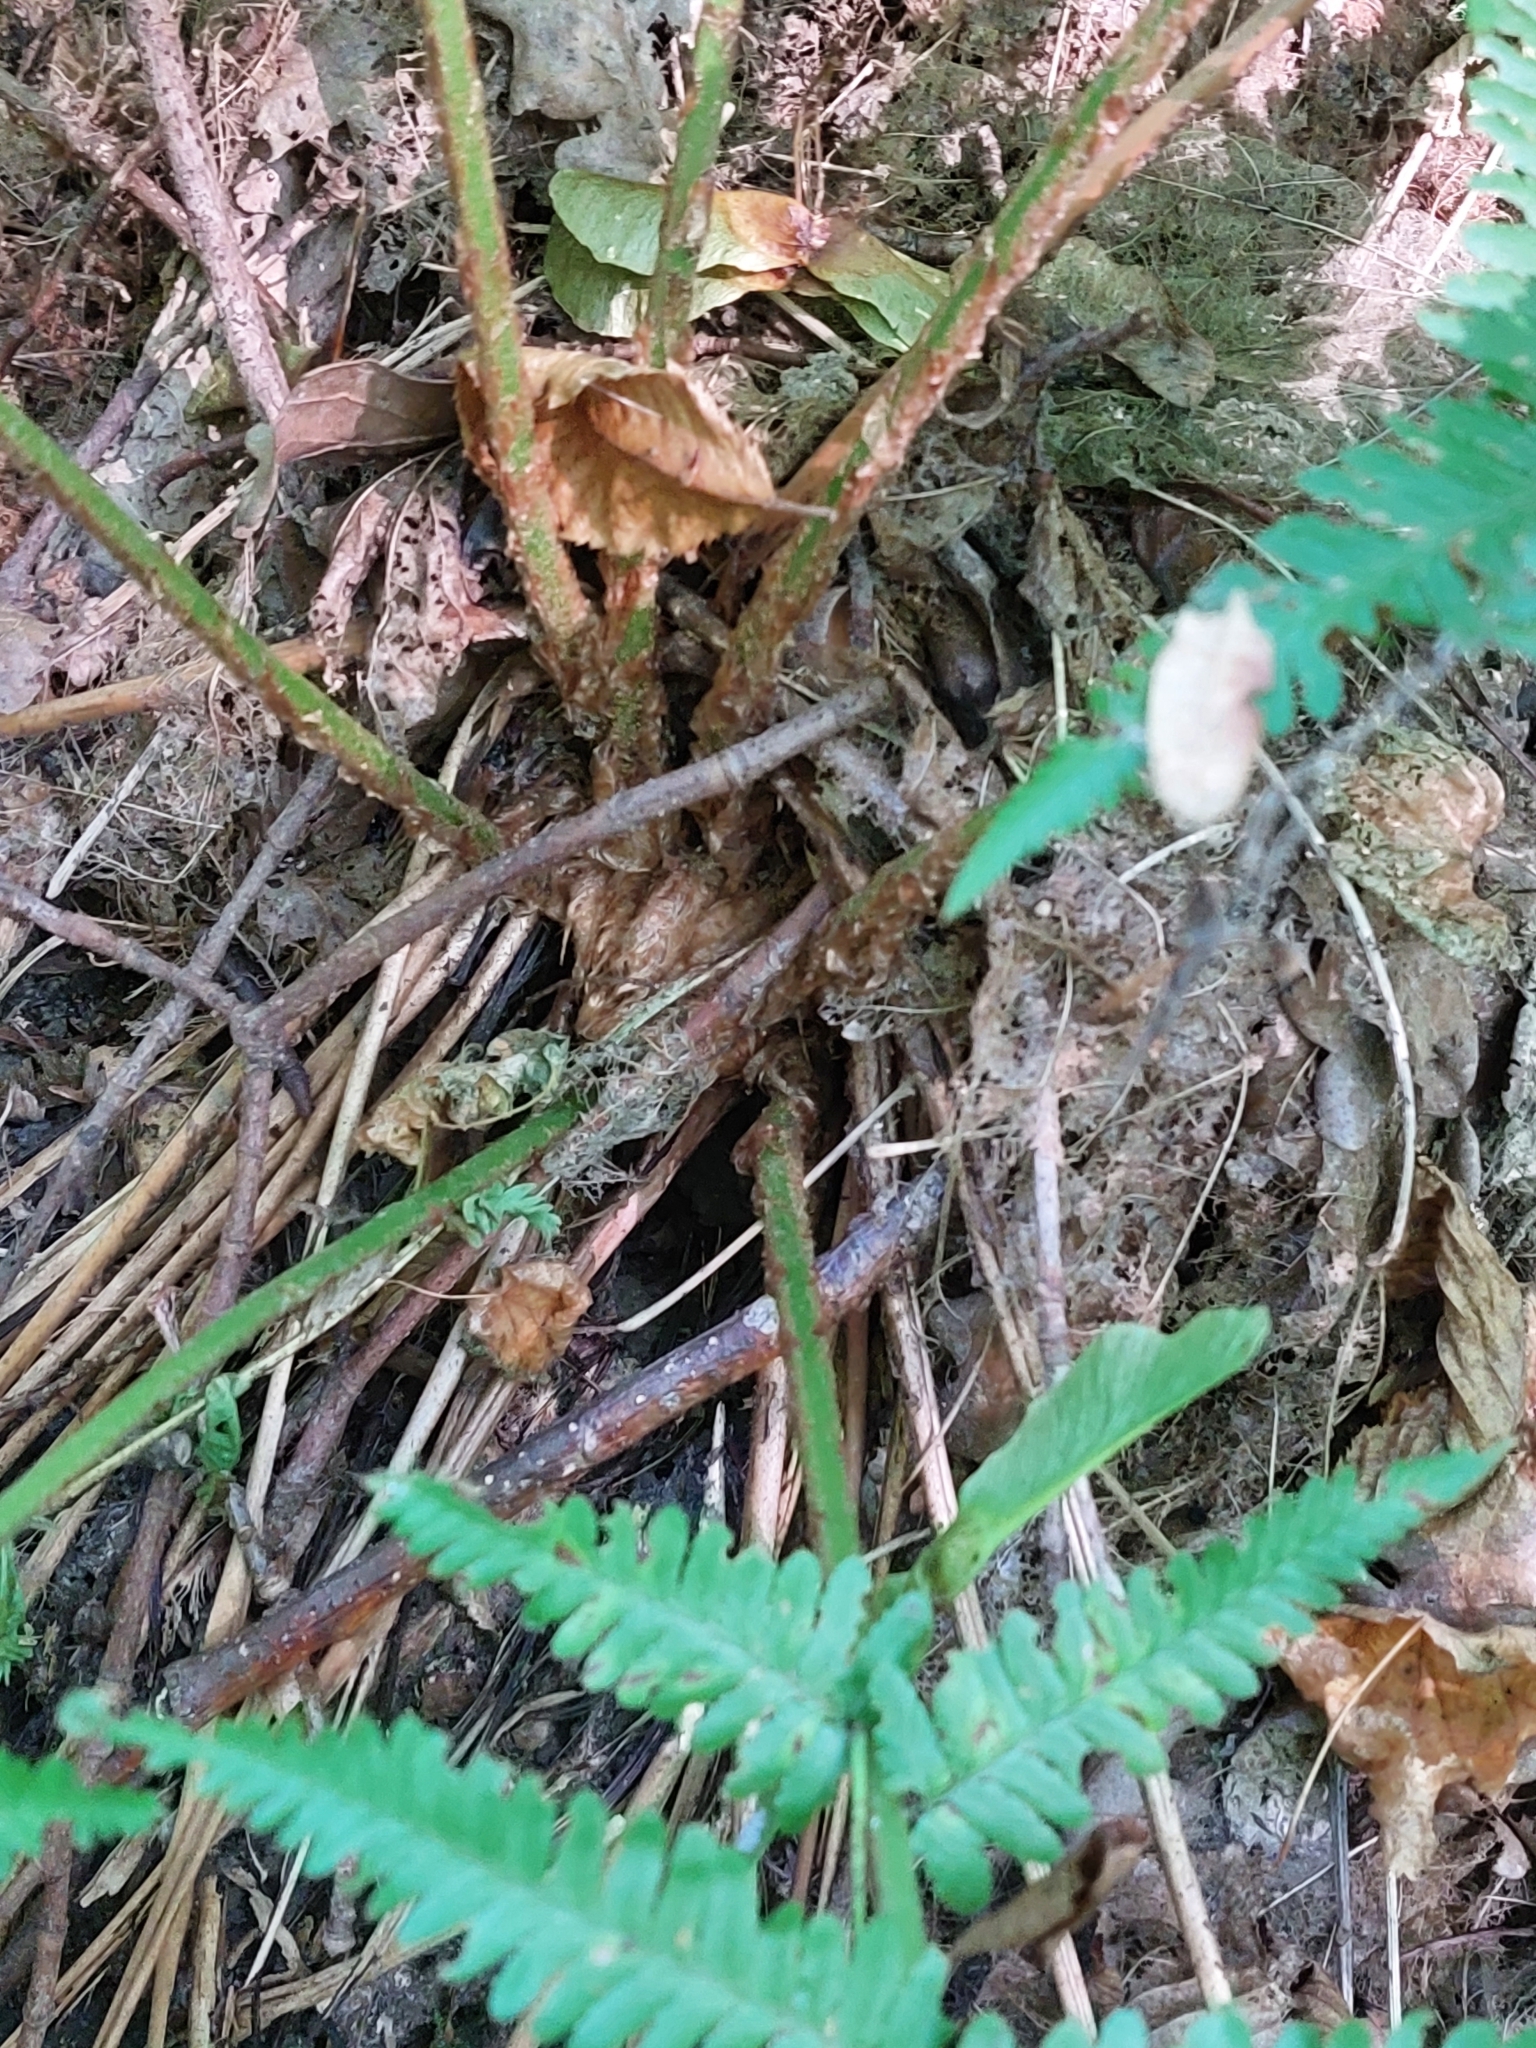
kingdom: Plantae
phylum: Tracheophyta
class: Polypodiopsida
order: Polypodiales
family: Dryopteridaceae
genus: Dryopteris
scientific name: Dryopteris filix-mas
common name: Male fern
